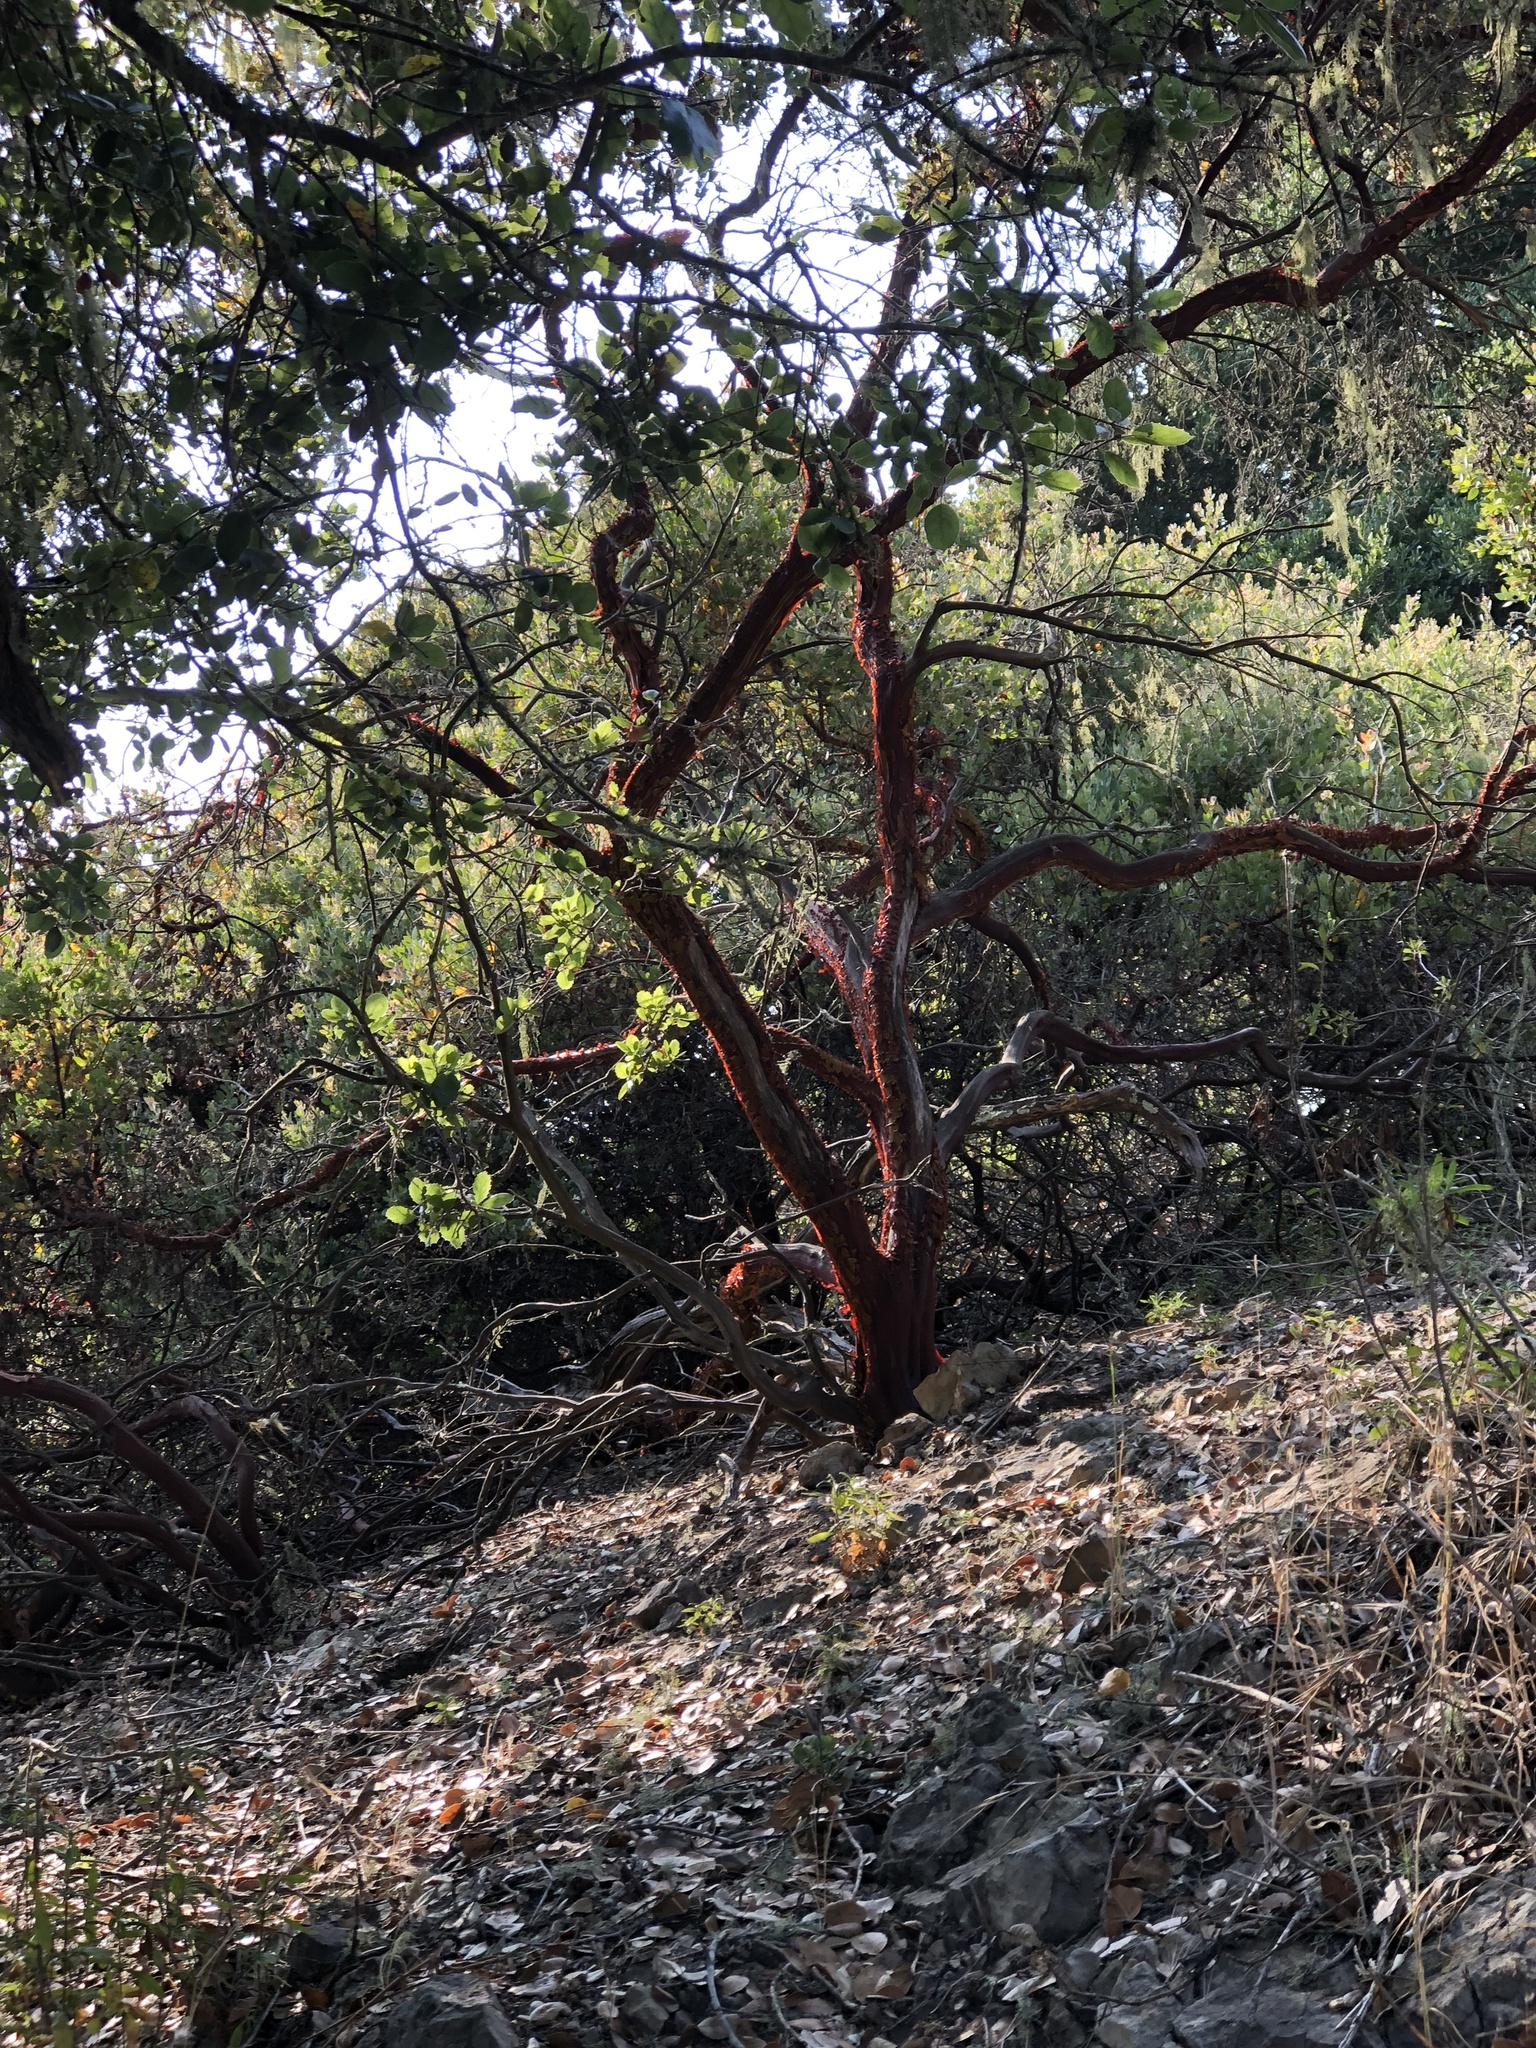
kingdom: Plantae
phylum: Tracheophyta
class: Magnoliopsida
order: Ericales
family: Ericaceae
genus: Arctostaphylos
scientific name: Arctostaphylos pilosula
